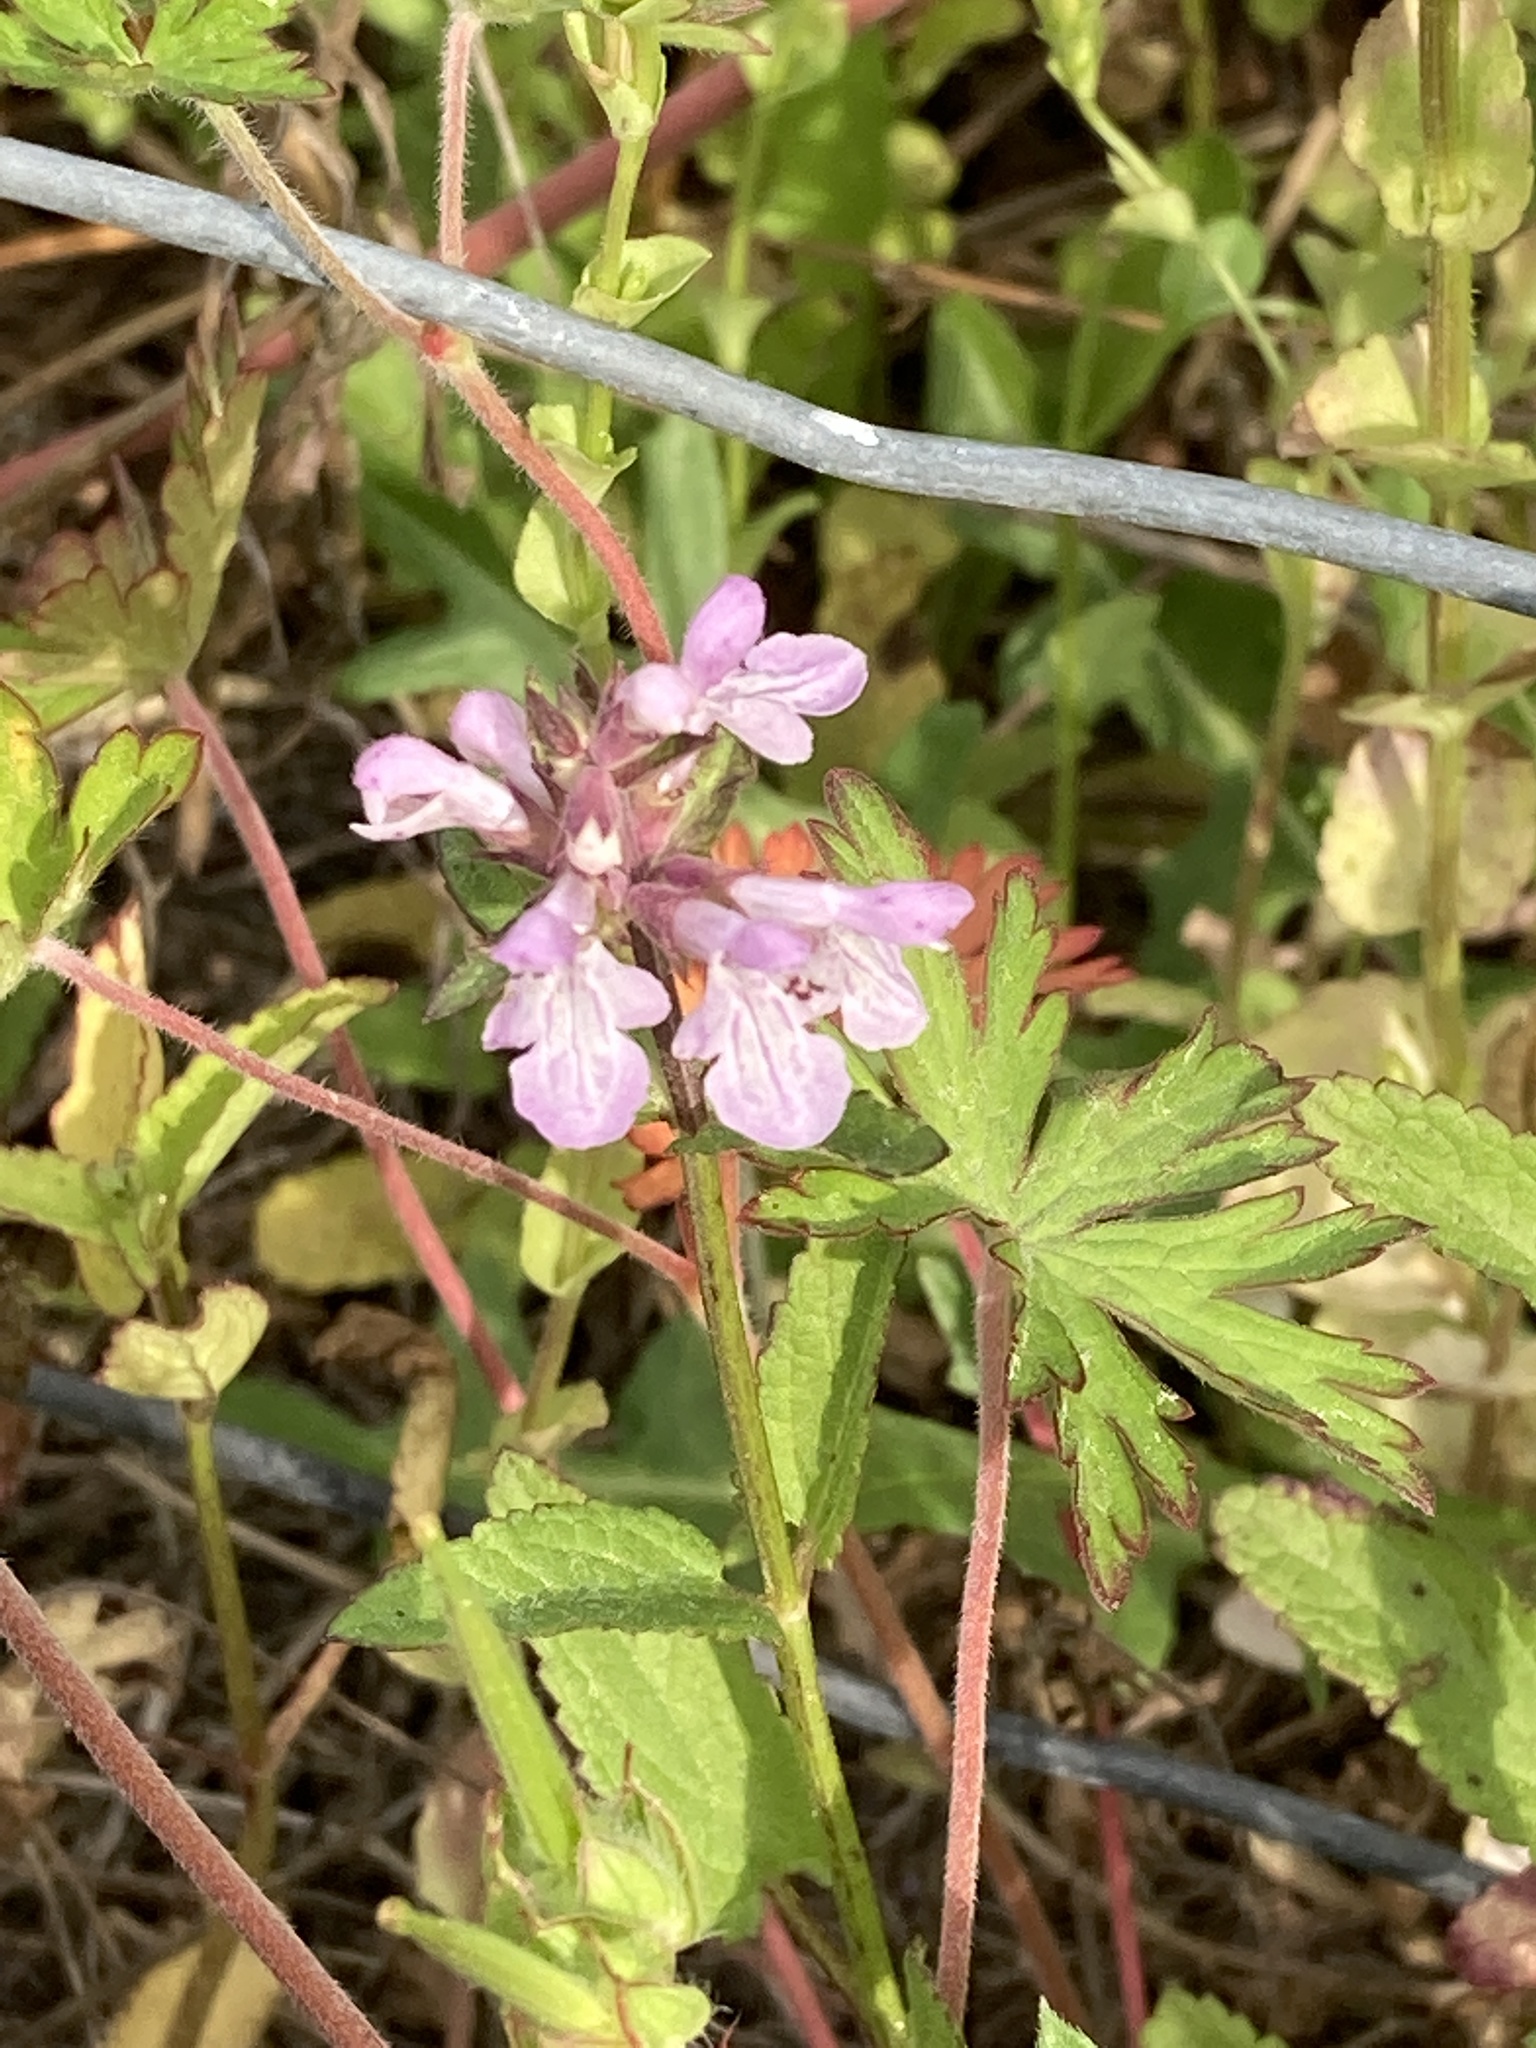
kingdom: Plantae
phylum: Tracheophyta
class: Magnoliopsida
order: Lamiales
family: Lamiaceae
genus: Stachys
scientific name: Stachys floridana
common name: Florida betony
